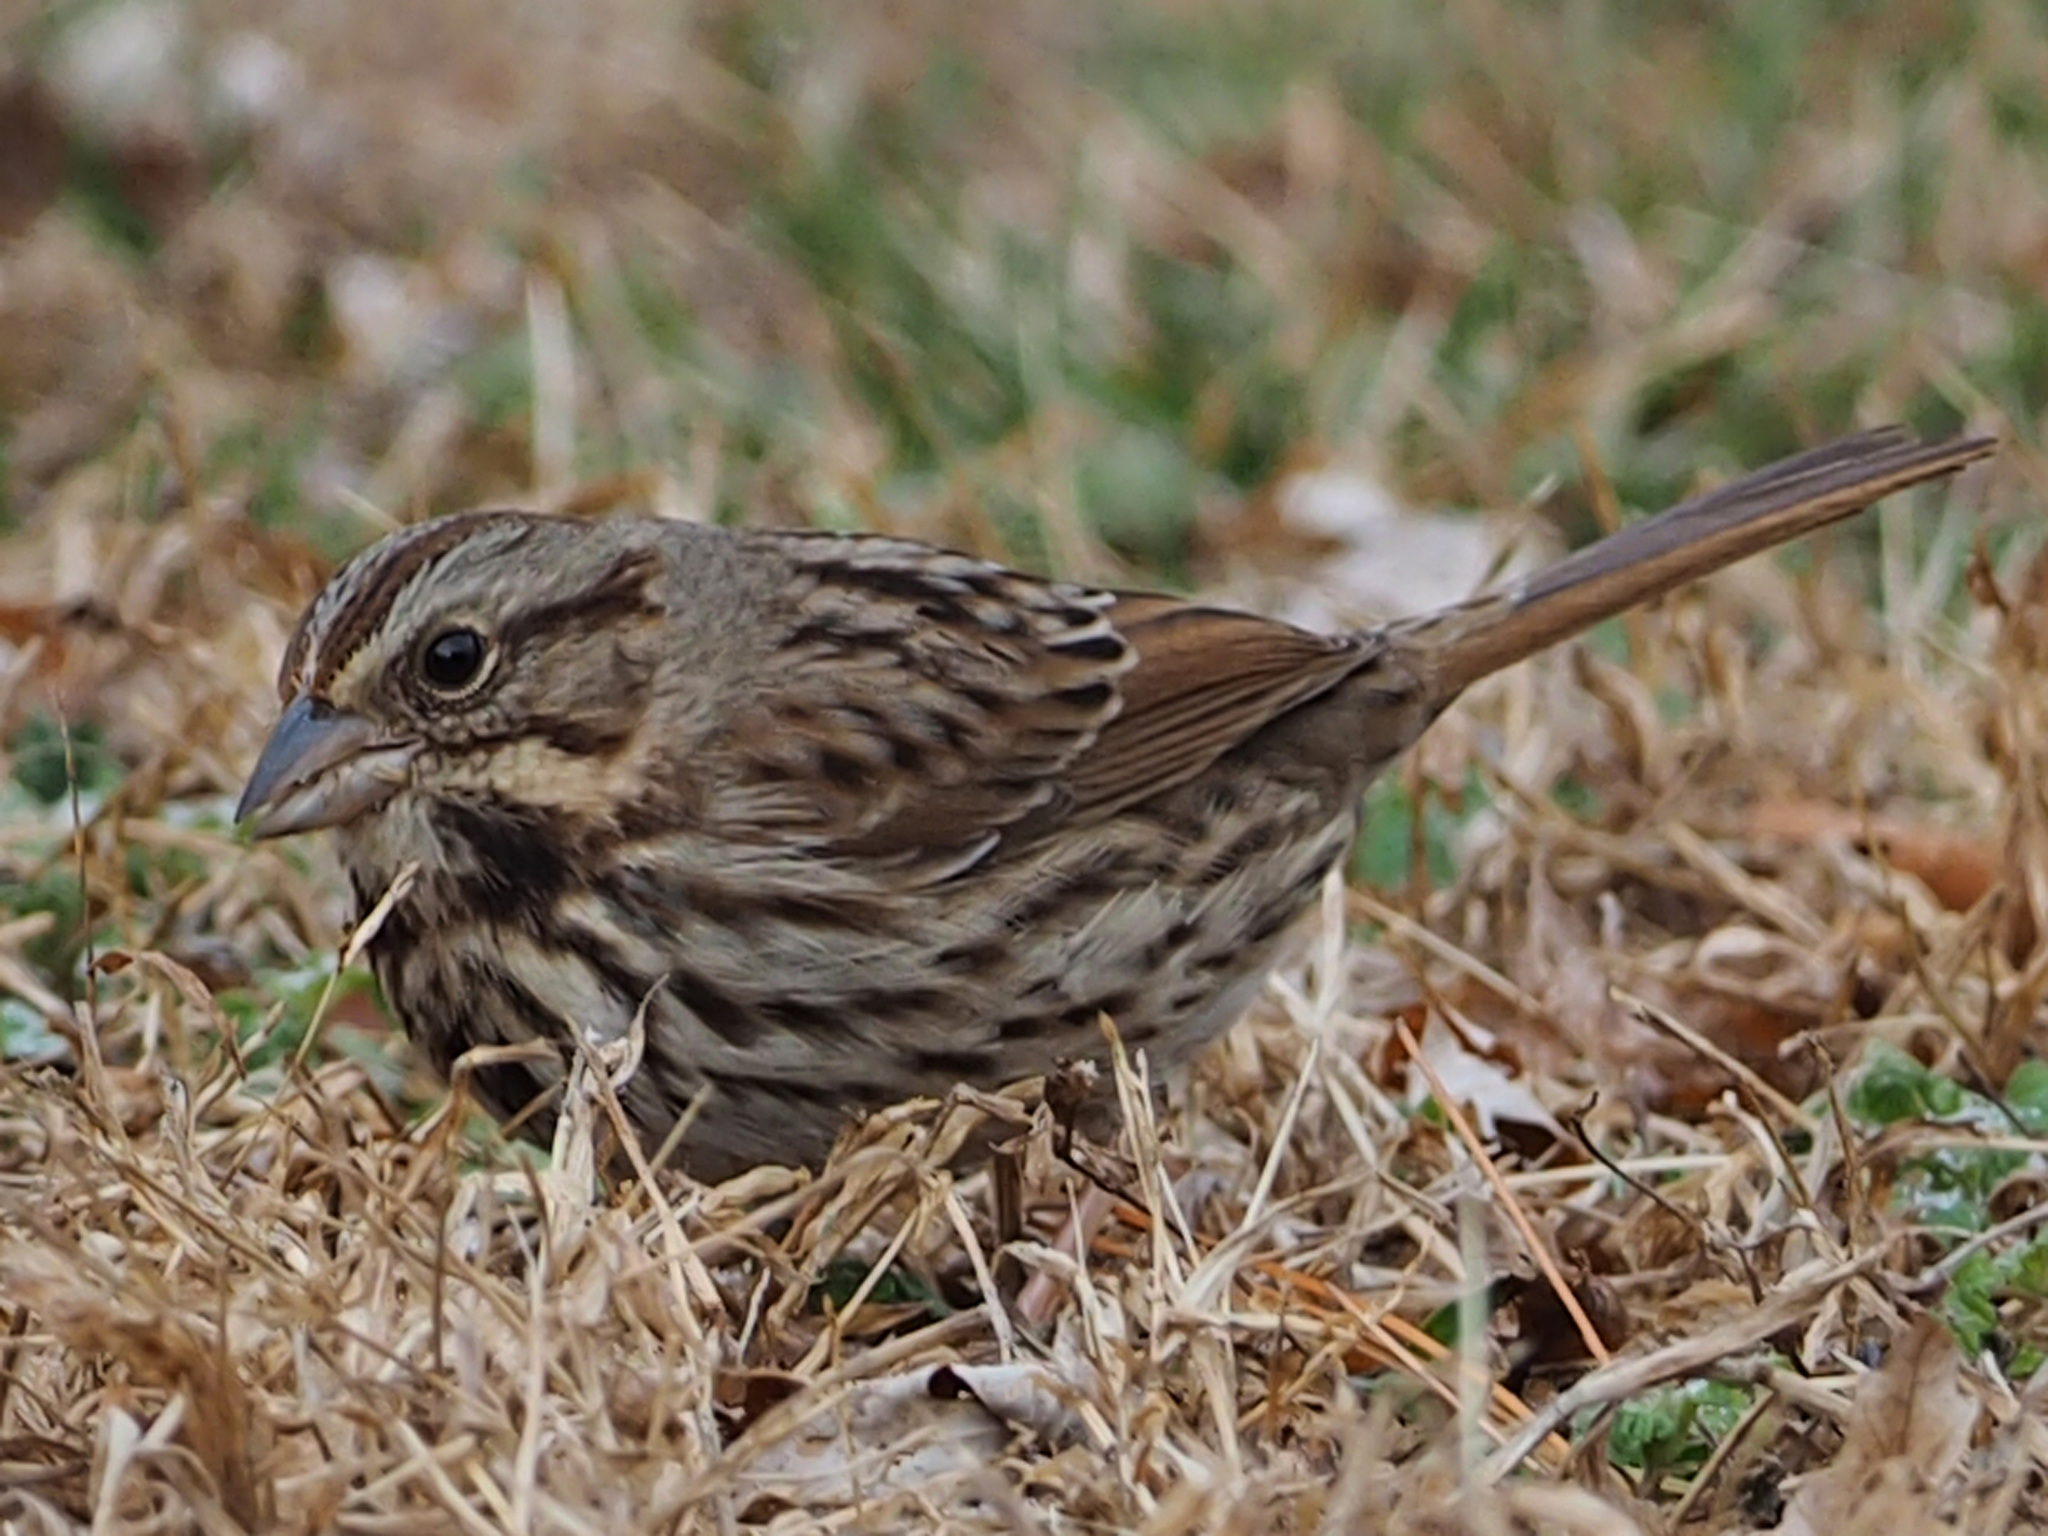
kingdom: Animalia
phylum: Chordata
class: Aves
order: Passeriformes
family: Passerellidae
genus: Melospiza
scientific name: Melospiza melodia
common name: Song sparrow
